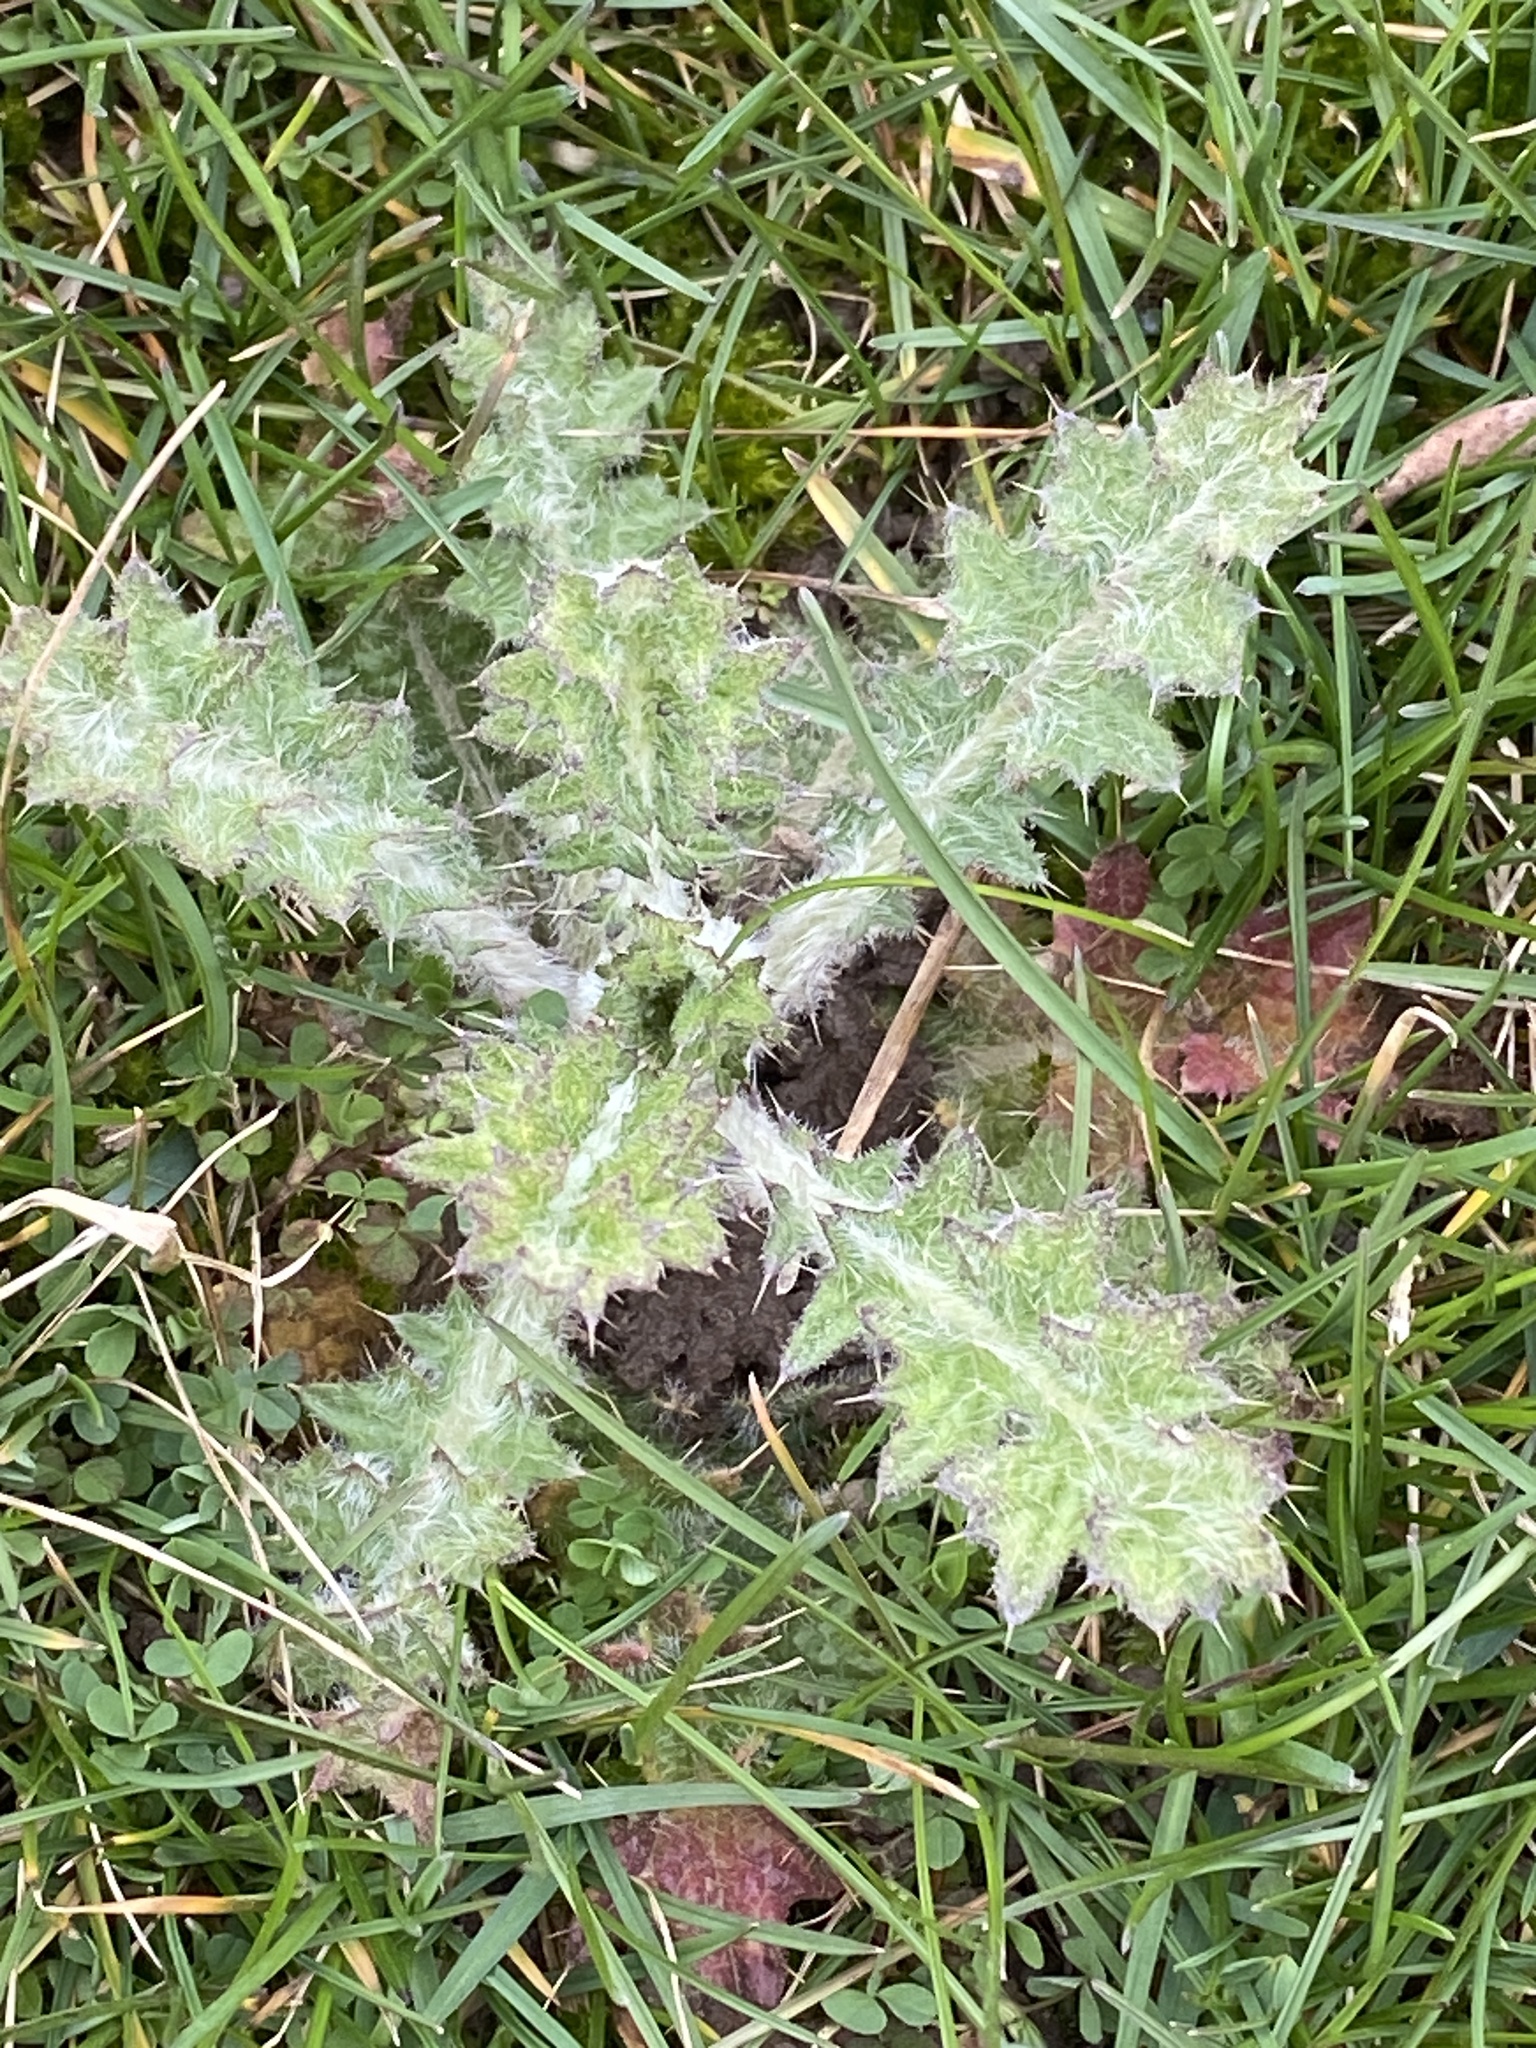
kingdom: Plantae
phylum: Tracheophyta
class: Magnoliopsida
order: Asterales
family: Asteraceae
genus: Cirsium
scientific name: Cirsium vulgare
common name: Bull thistle
